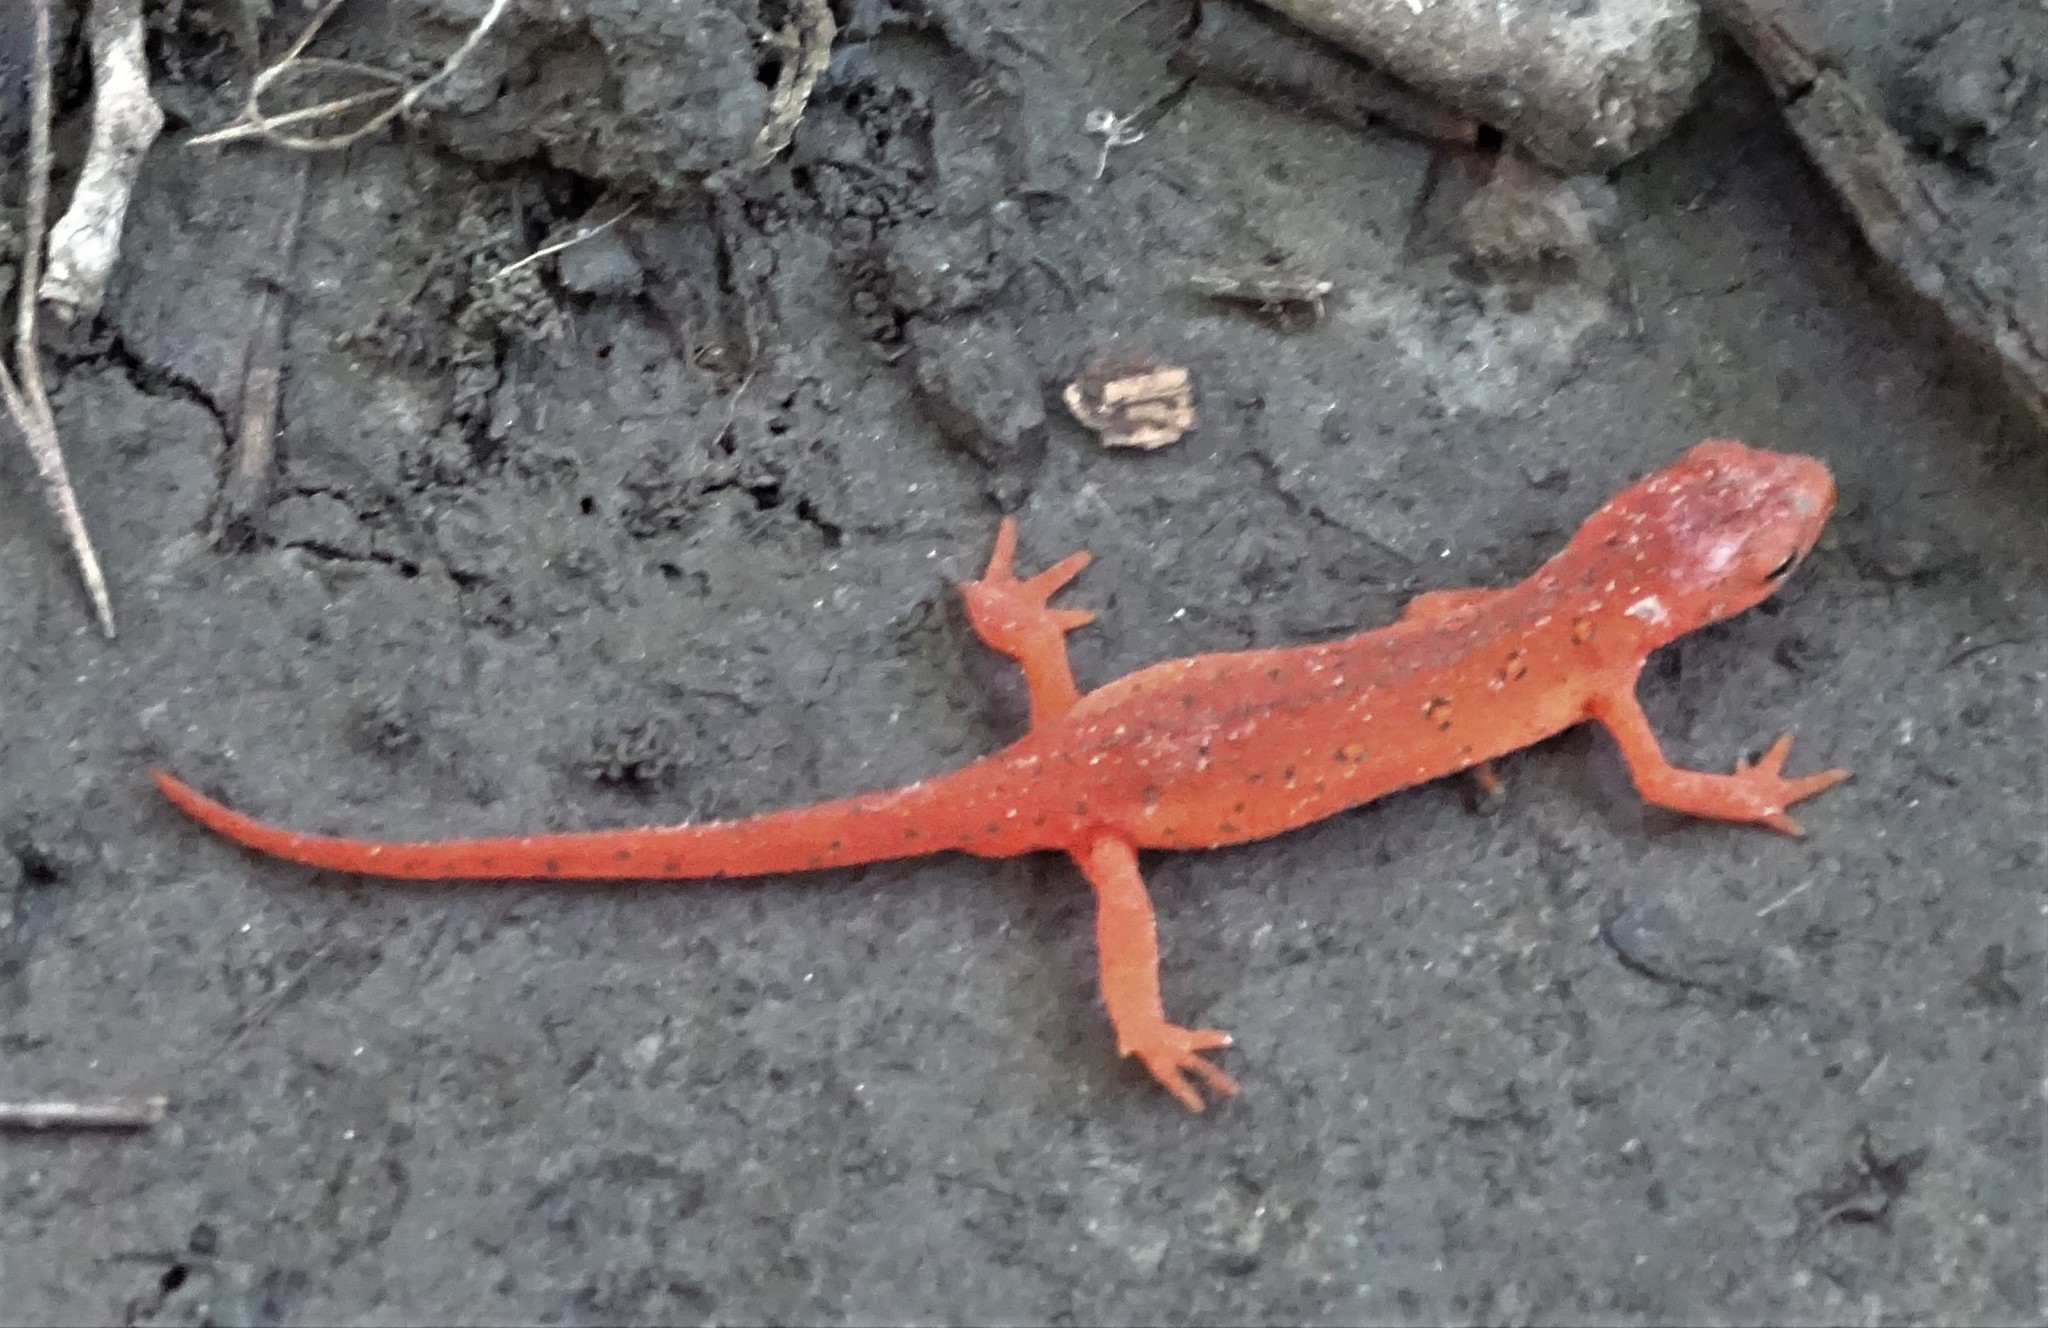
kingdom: Animalia
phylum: Chordata
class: Amphibia
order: Caudata
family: Salamandridae
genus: Notophthalmus
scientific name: Notophthalmus viridescens
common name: Eastern newt
